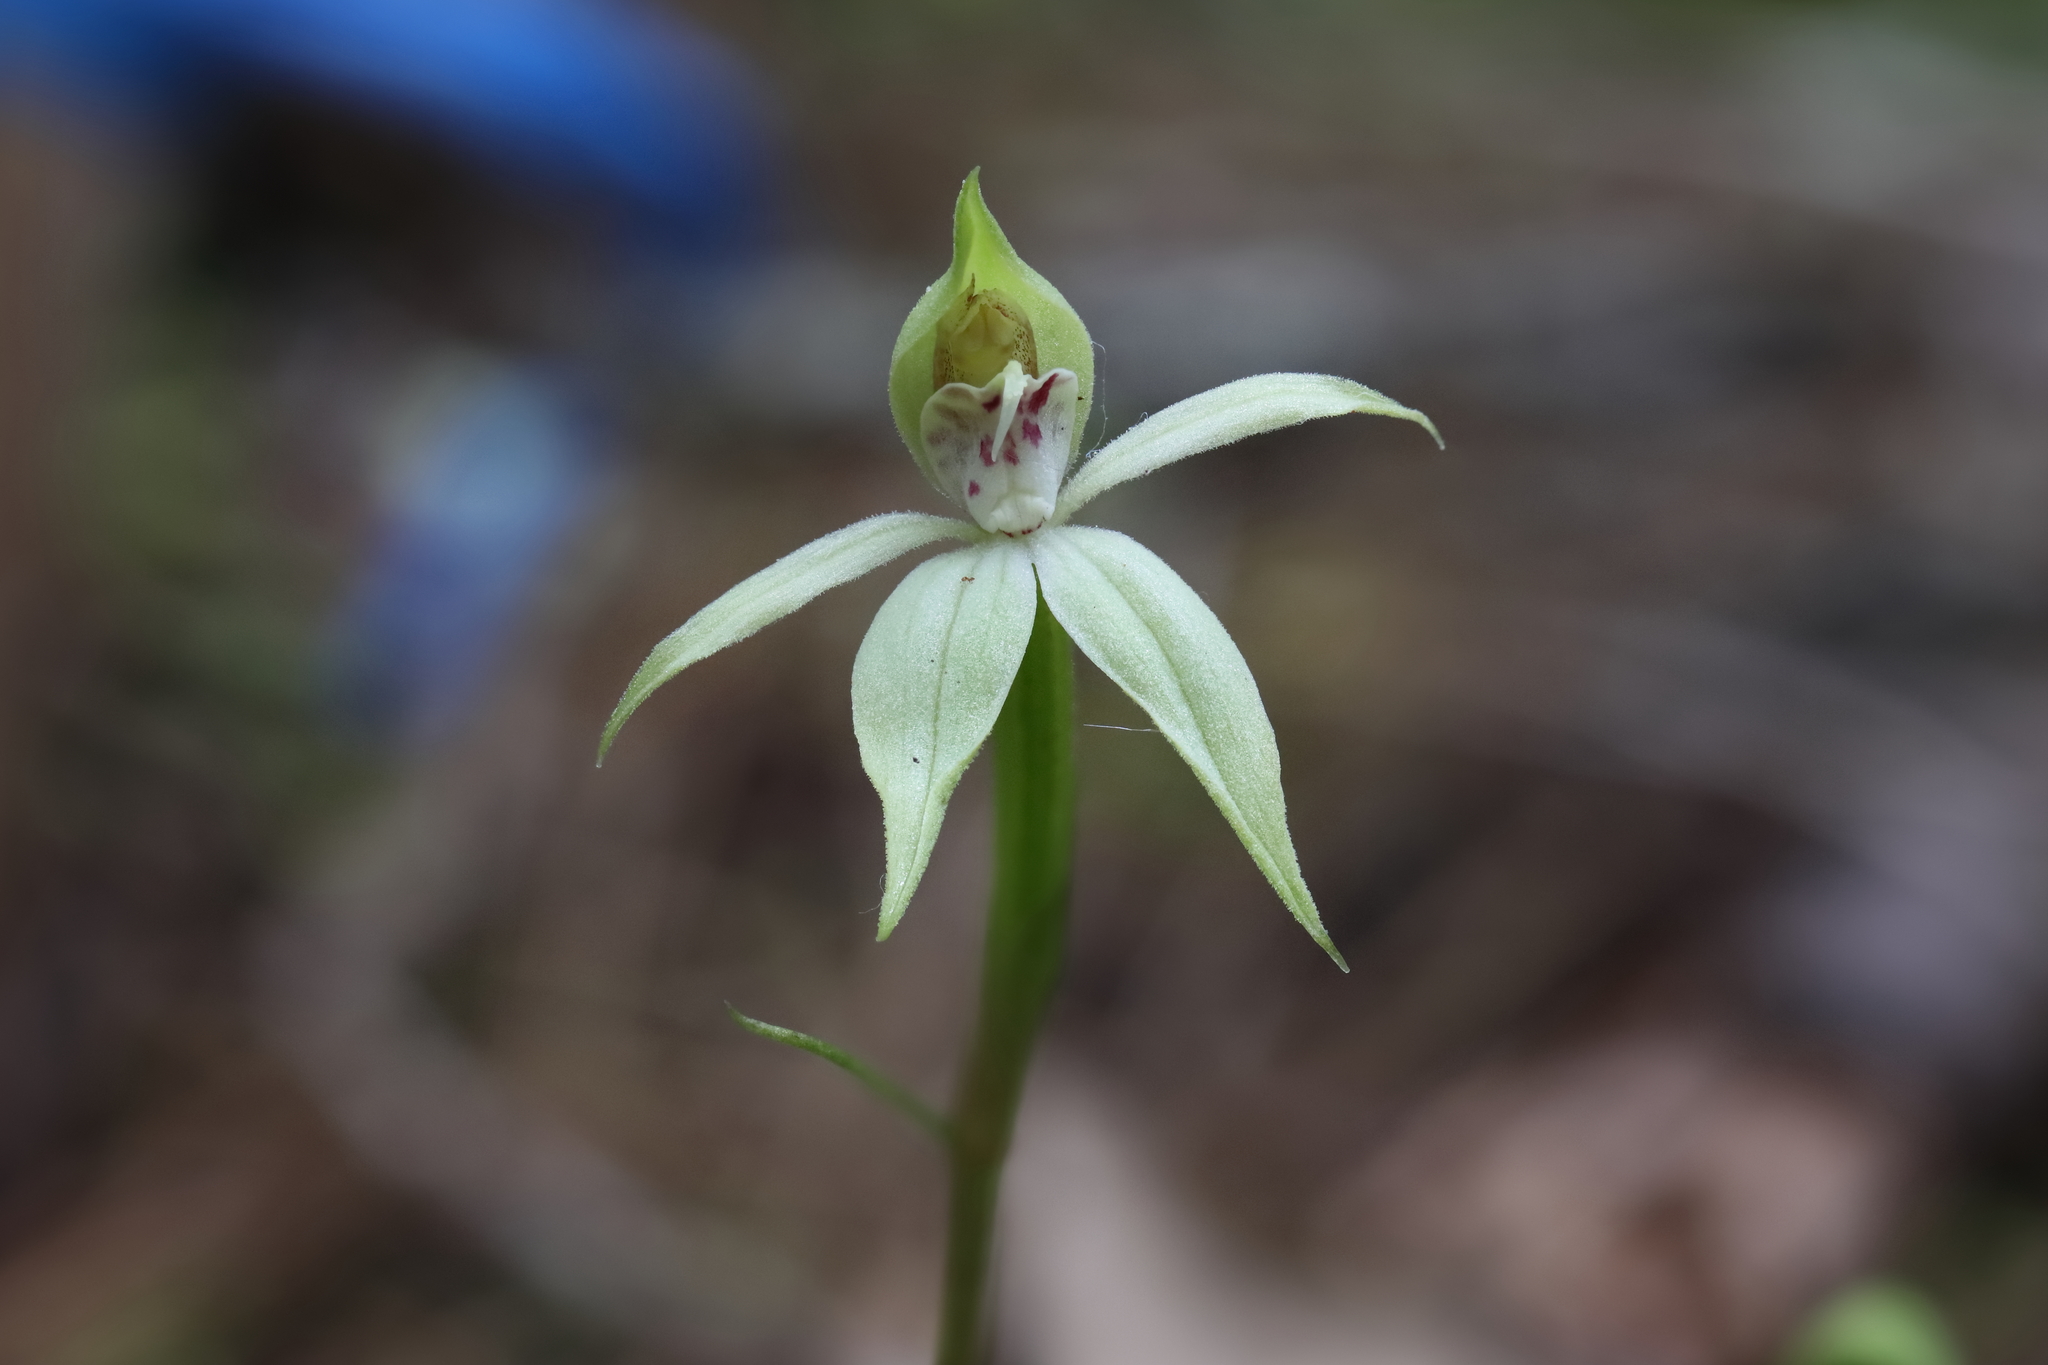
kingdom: Plantae
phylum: Tracheophyta
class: Liliopsida
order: Asparagales
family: Orchidaceae
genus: Adenochilus
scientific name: Adenochilus gracilis
